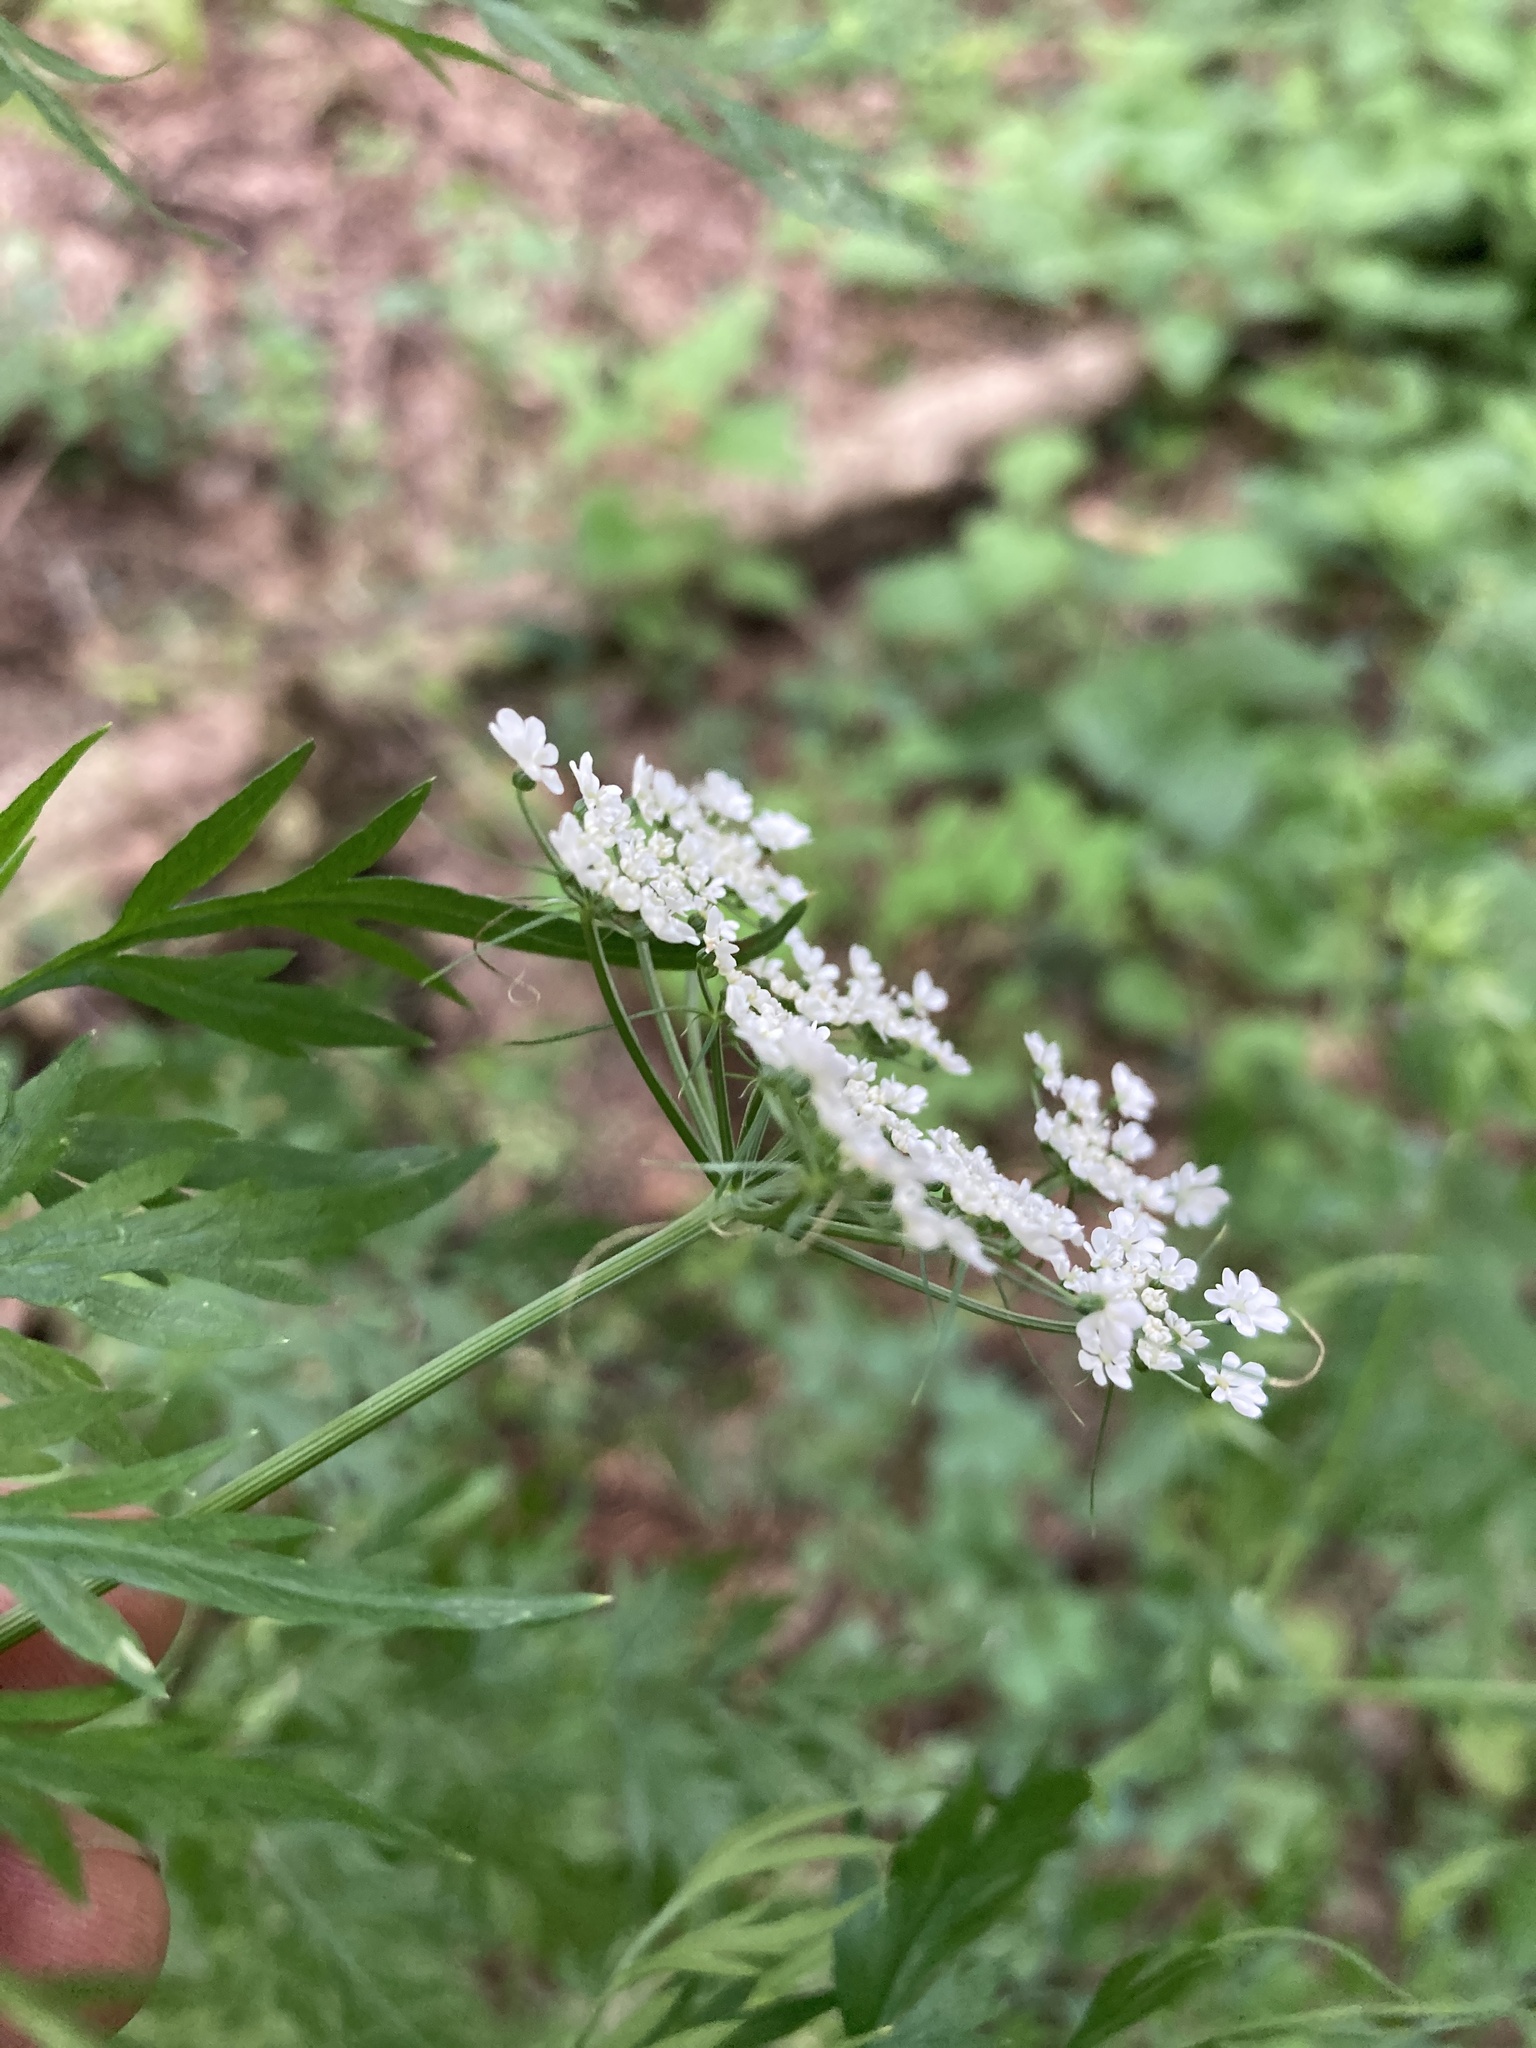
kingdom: Plantae
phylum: Tracheophyta
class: Magnoliopsida
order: Apiales
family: Apiaceae
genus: Aethusa
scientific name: Aethusa cynapium
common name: Fool's parsley
